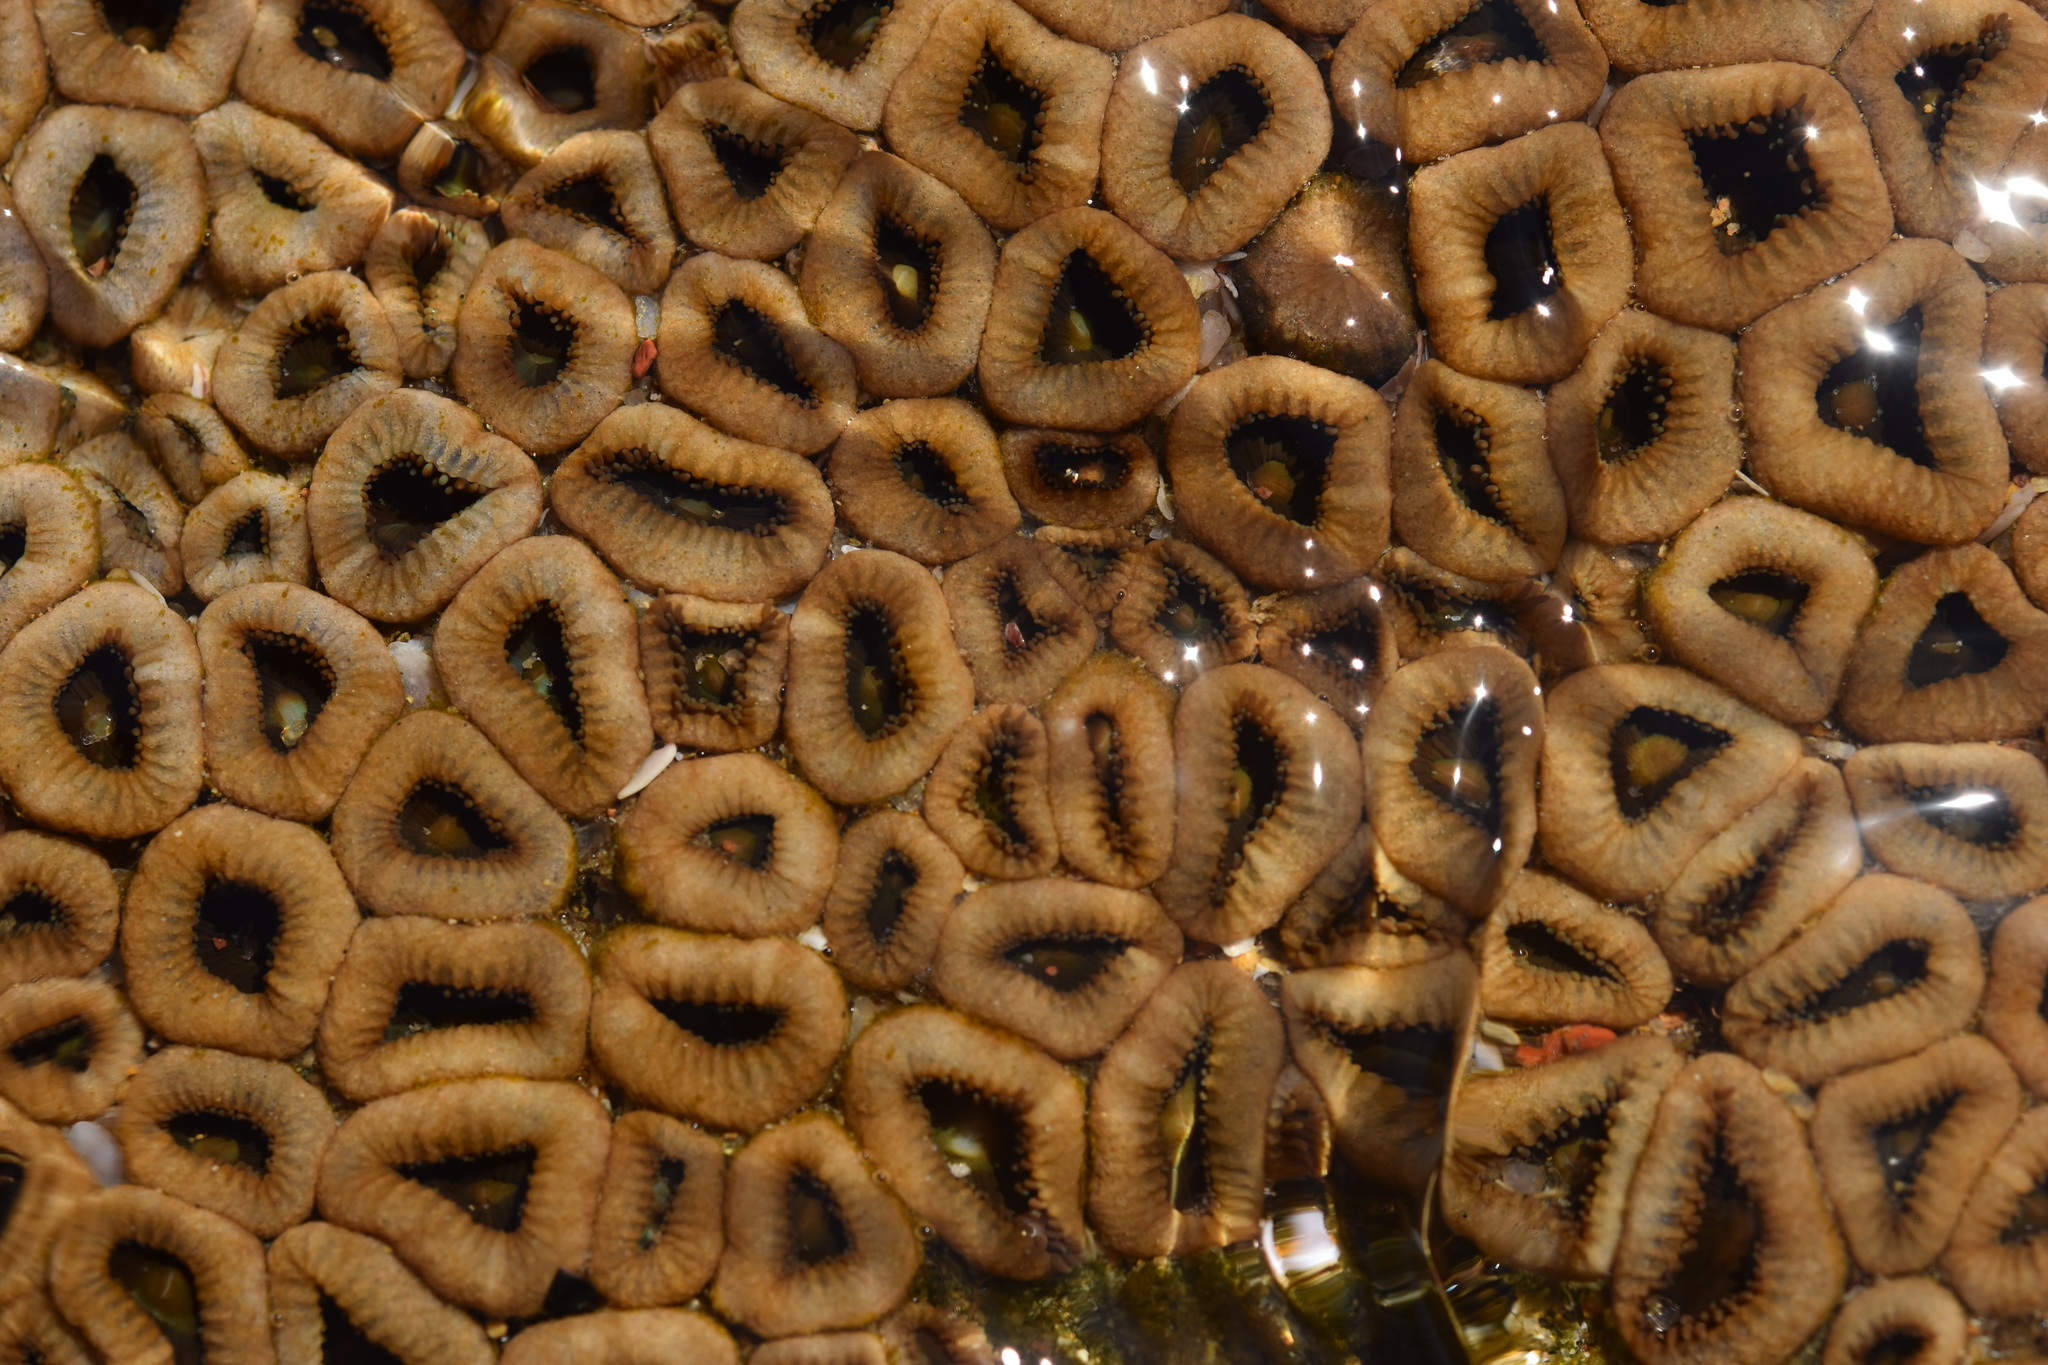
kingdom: Animalia
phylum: Cnidaria
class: Anthozoa
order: Zoantharia
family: Sphenopidae
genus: Palythoa
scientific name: Palythoa mutuki
